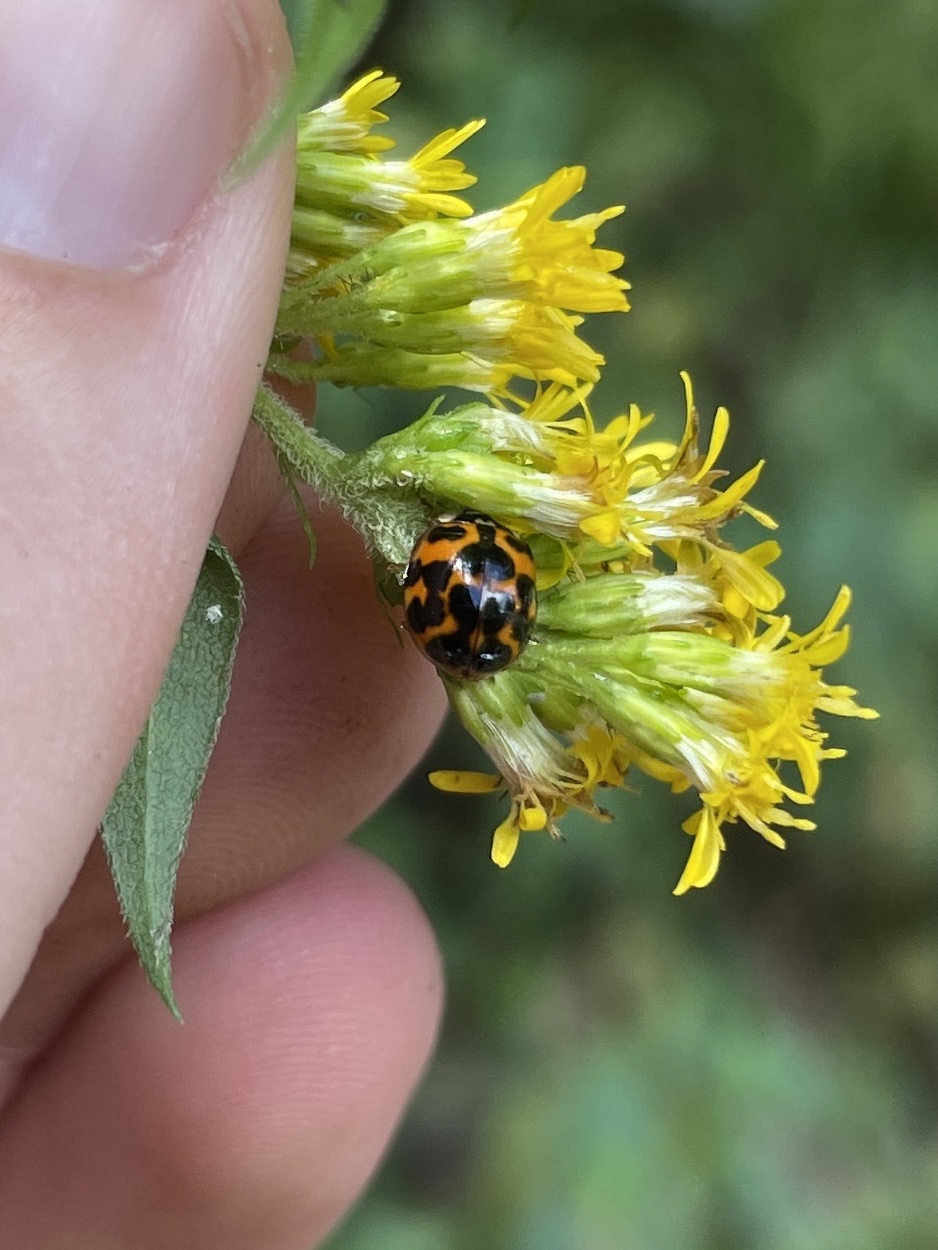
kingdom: Animalia
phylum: Arthropoda
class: Insecta
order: Coleoptera
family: Coccinellidae
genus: Harmonia
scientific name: Harmonia axyridis
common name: Harlequin ladybird
